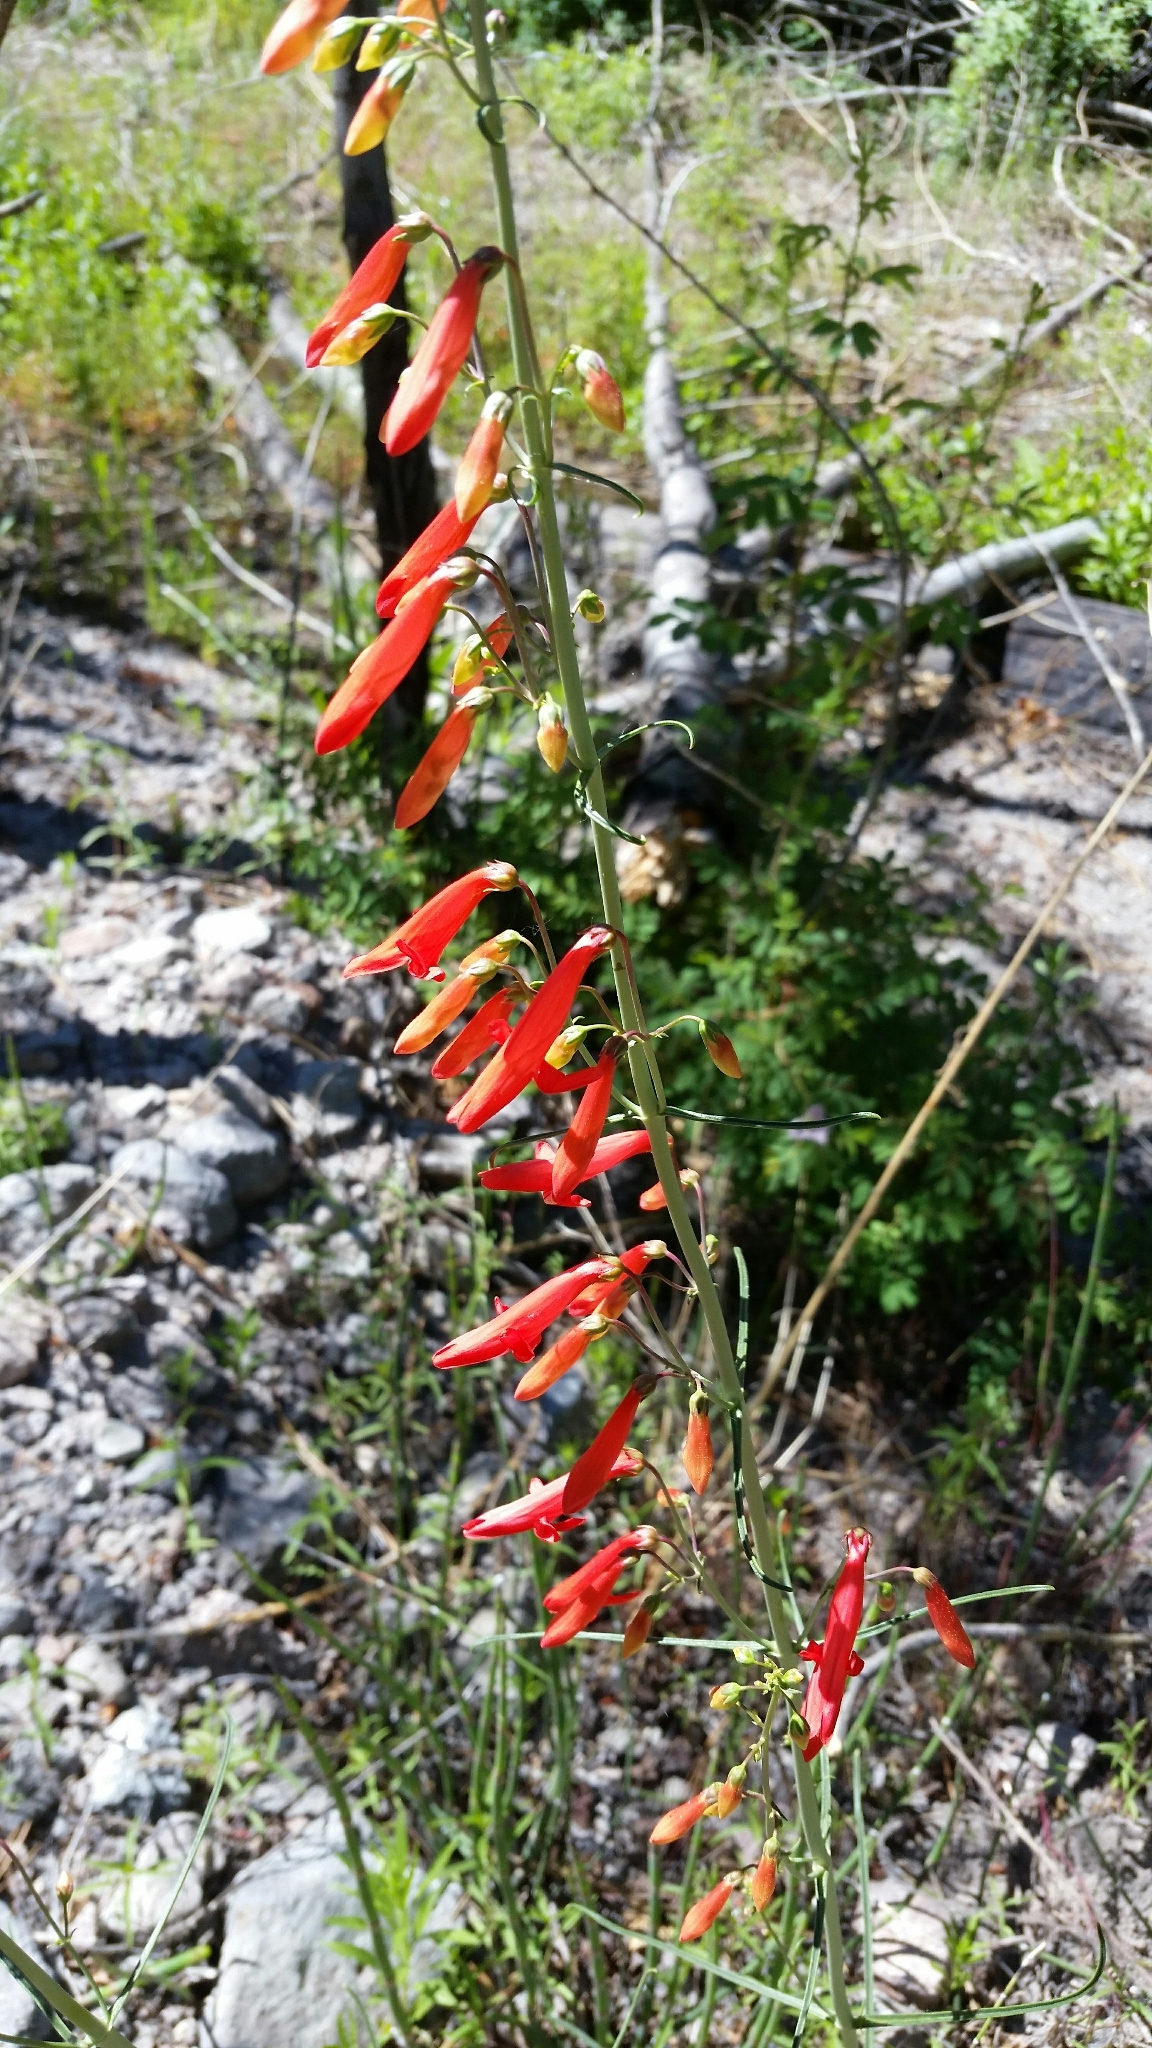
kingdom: Plantae
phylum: Tracheophyta
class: Magnoliopsida
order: Lamiales
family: Plantaginaceae
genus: Penstemon
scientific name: Penstemon barbatus
